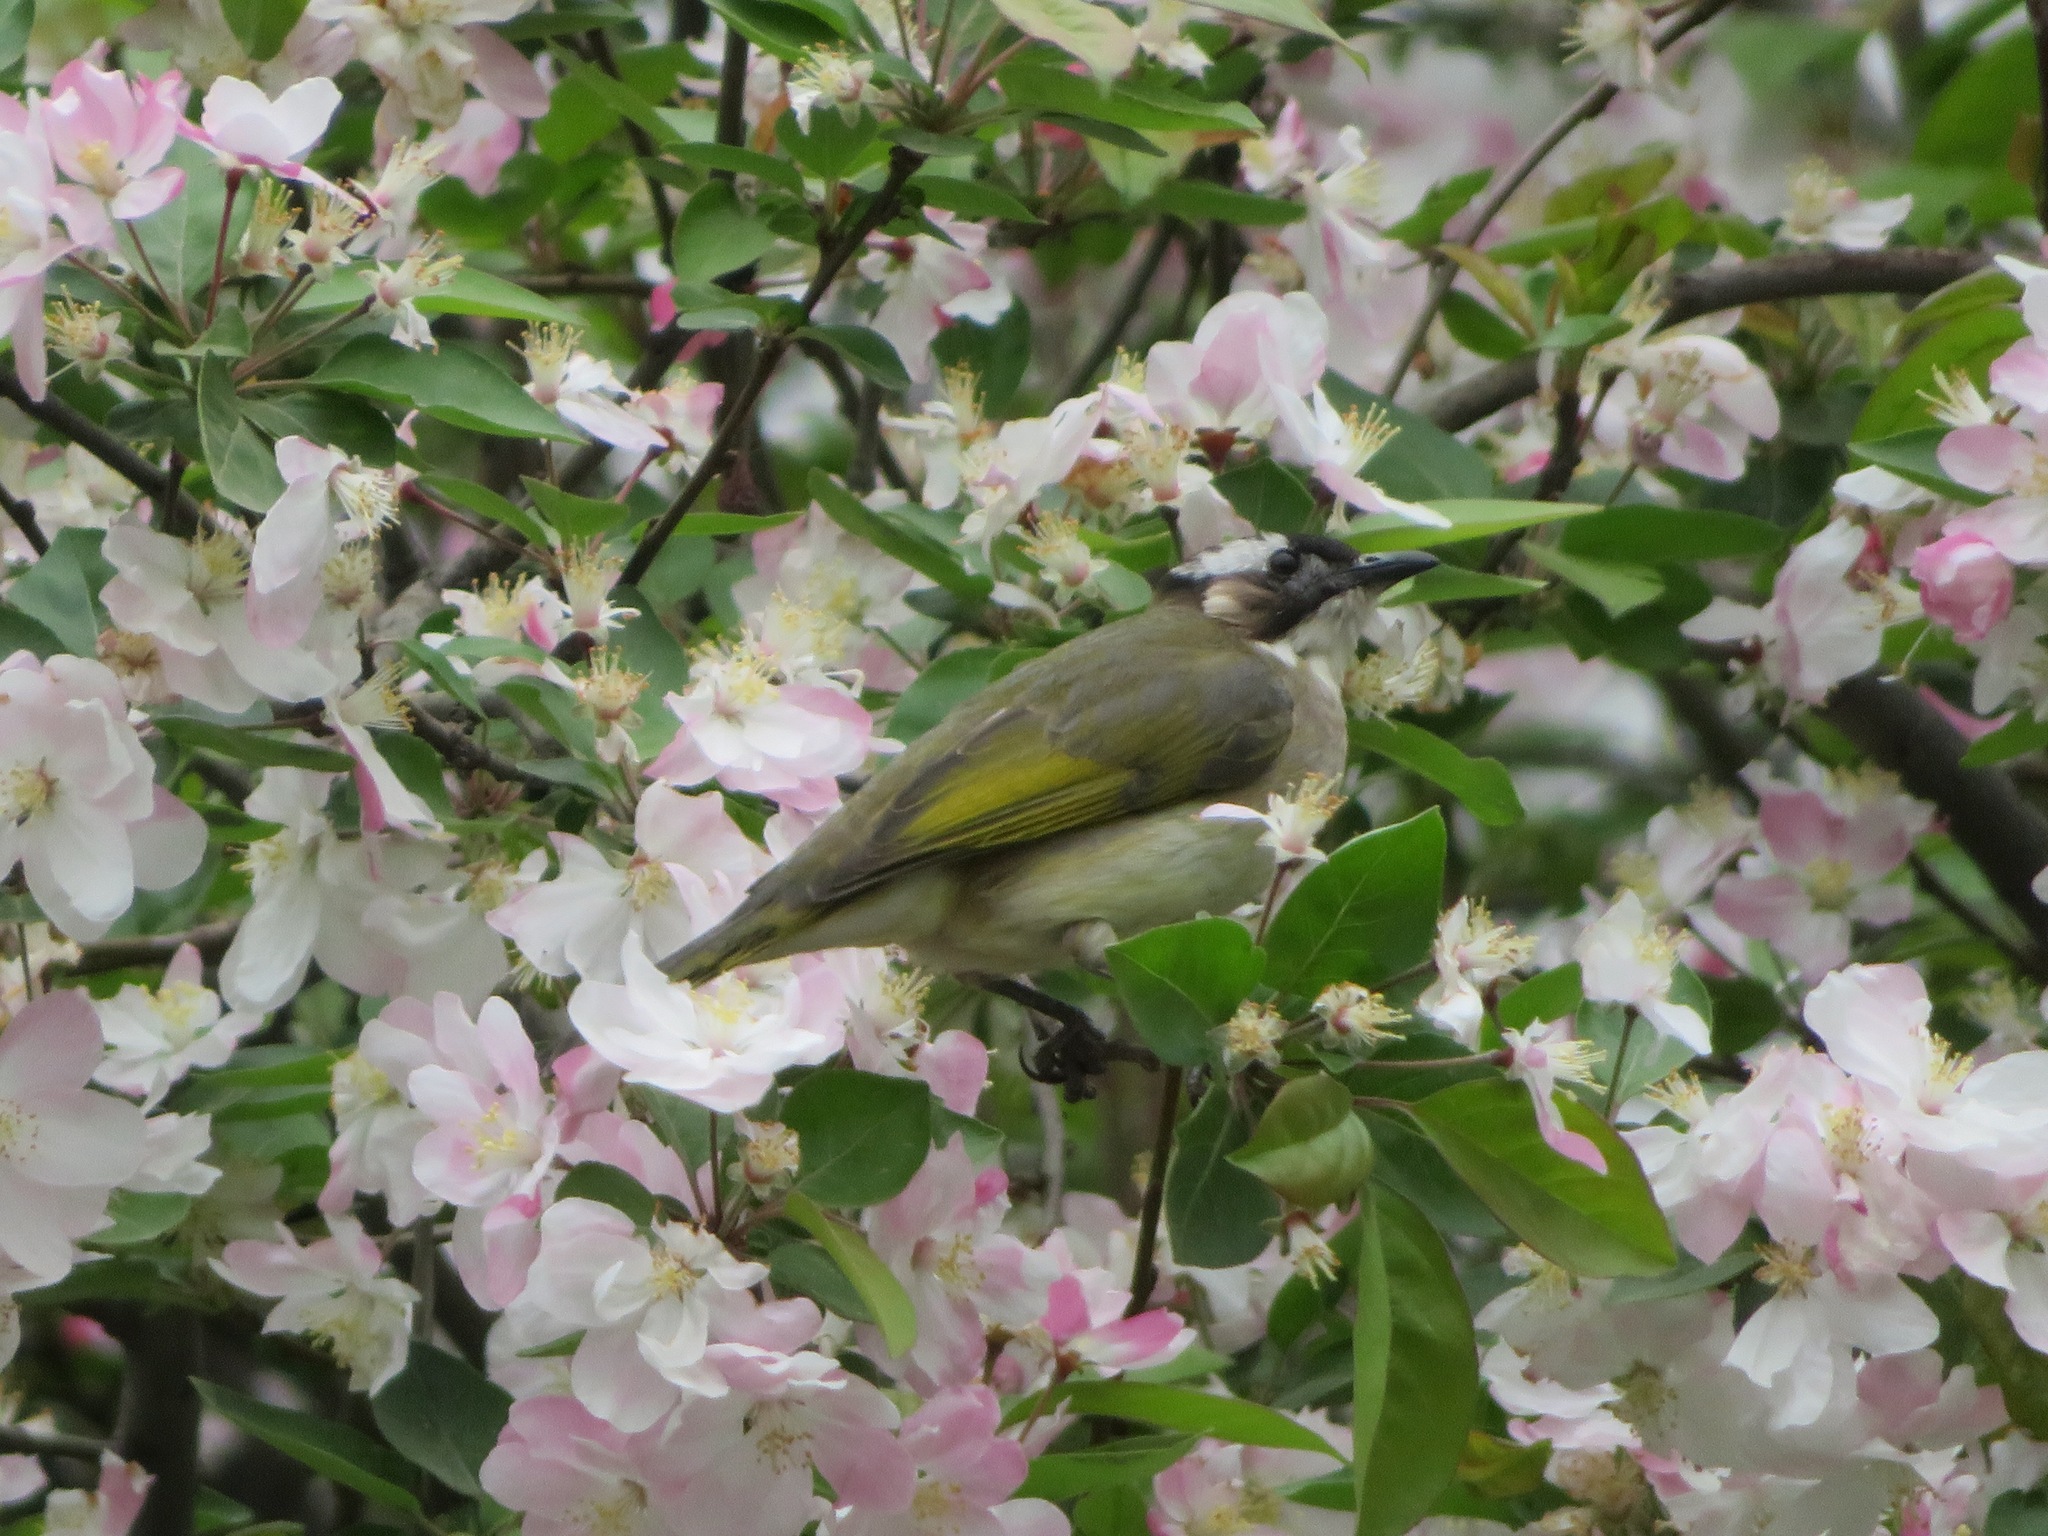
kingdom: Animalia
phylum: Chordata
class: Aves
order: Passeriformes
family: Pycnonotidae
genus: Pycnonotus
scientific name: Pycnonotus sinensis
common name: Light-vented bulbul
